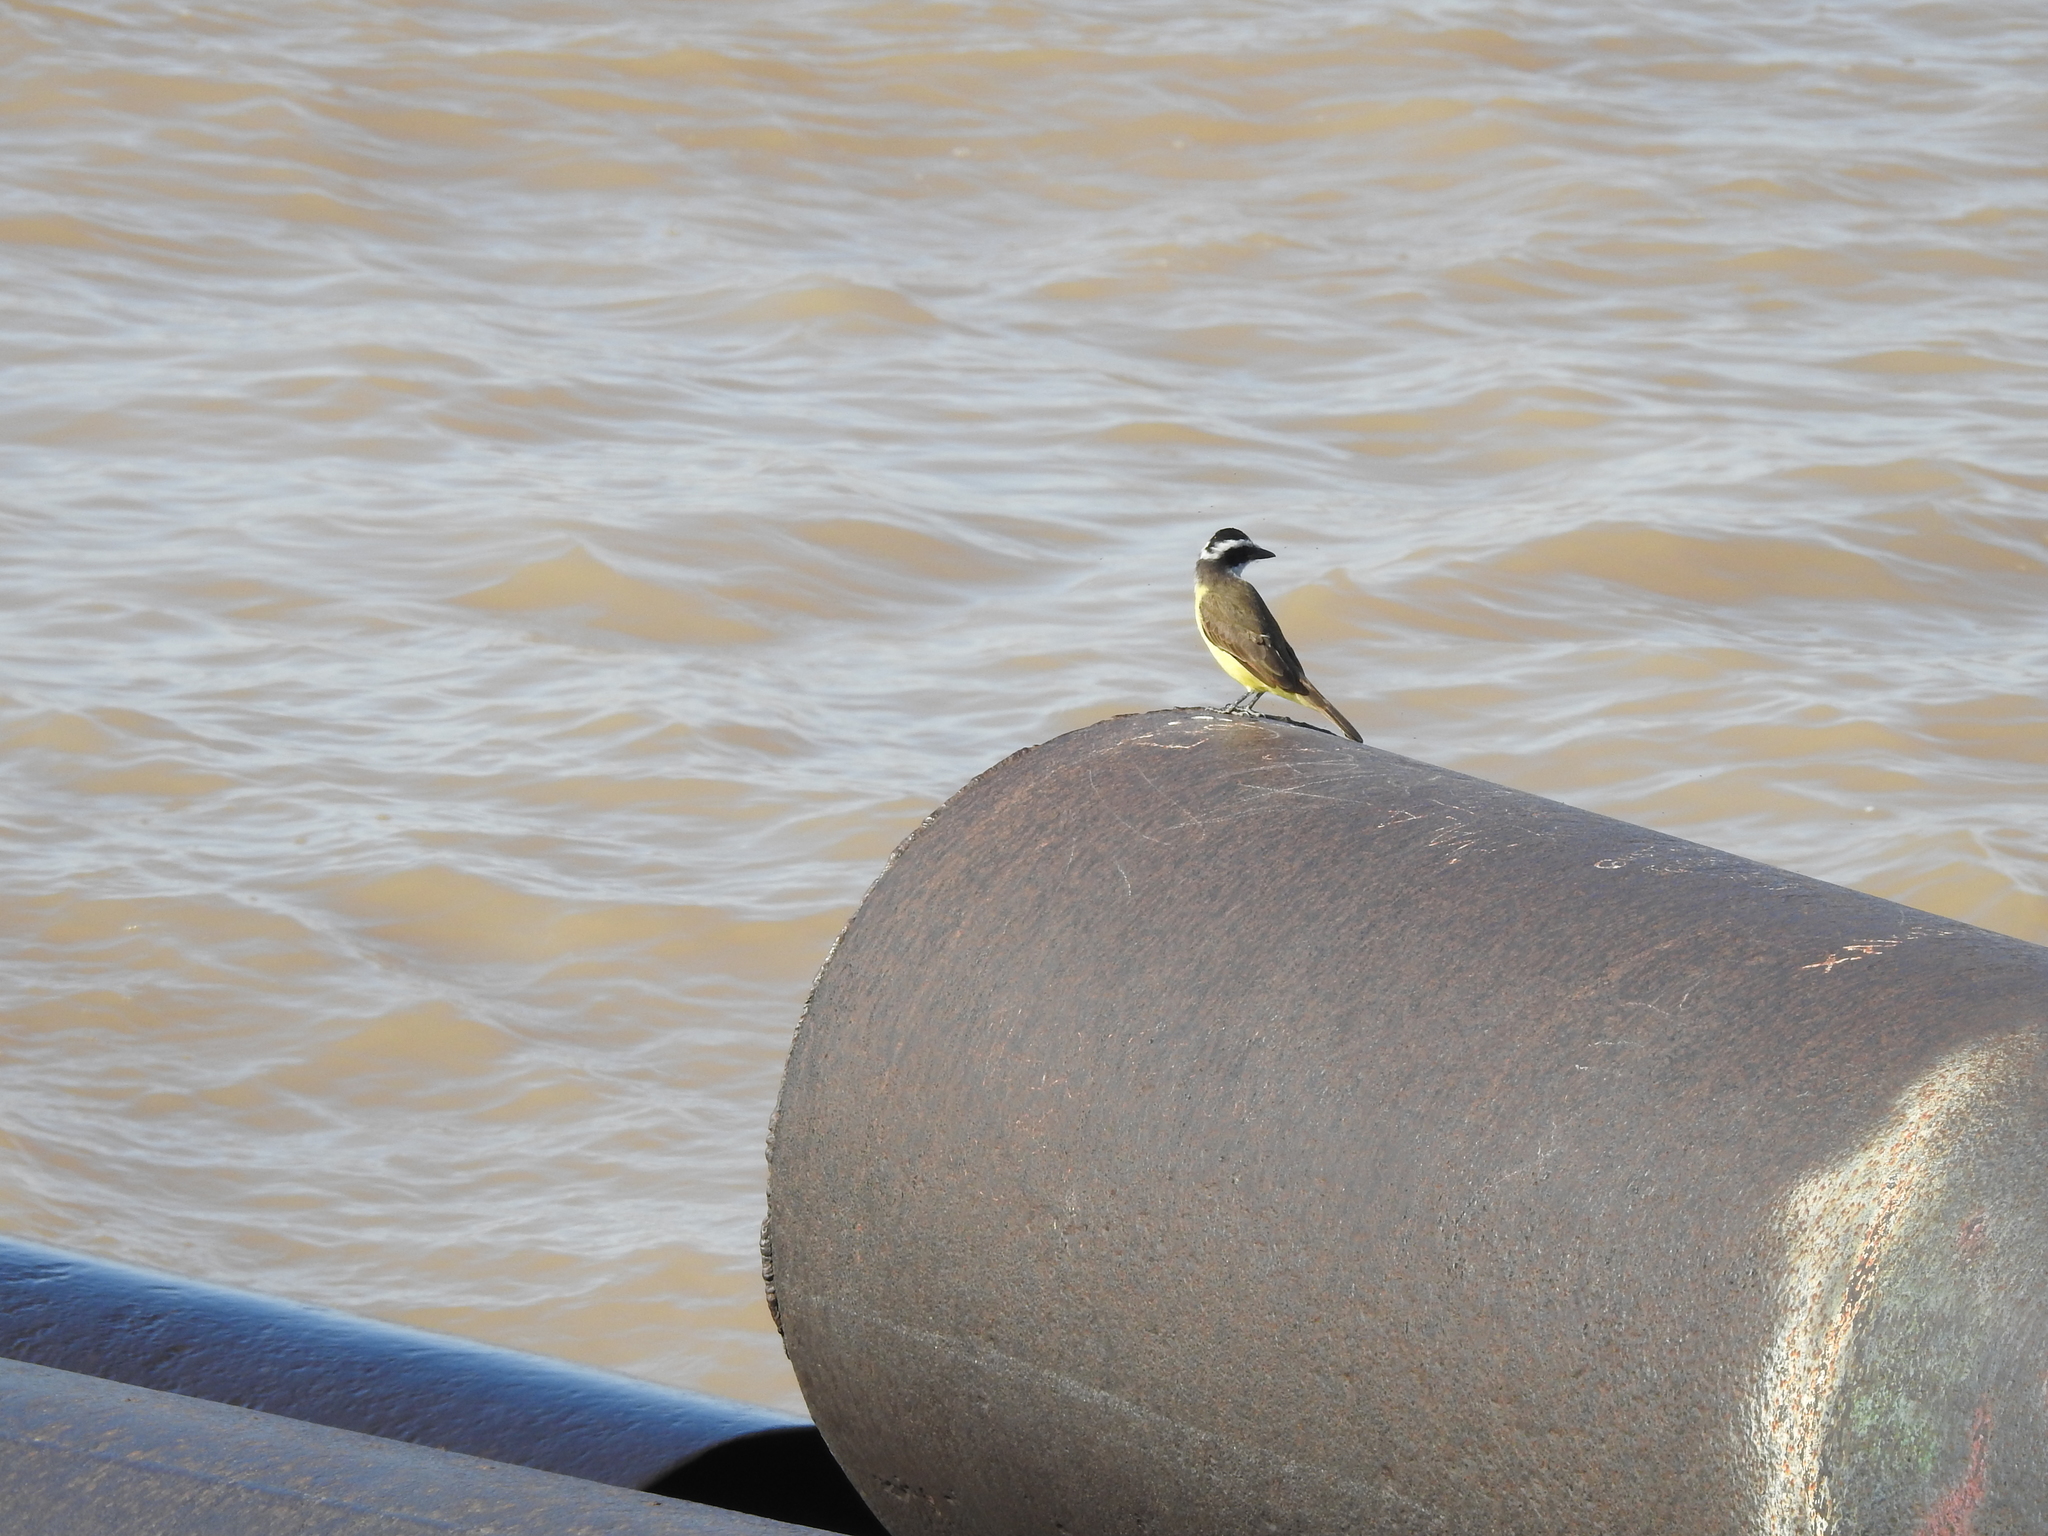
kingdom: Animalia
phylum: Chordata
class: Aves
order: Passeriformes
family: Tyrannidae
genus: Pitangus
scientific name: Pitangus sulphuratus
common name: Great kiskadee
